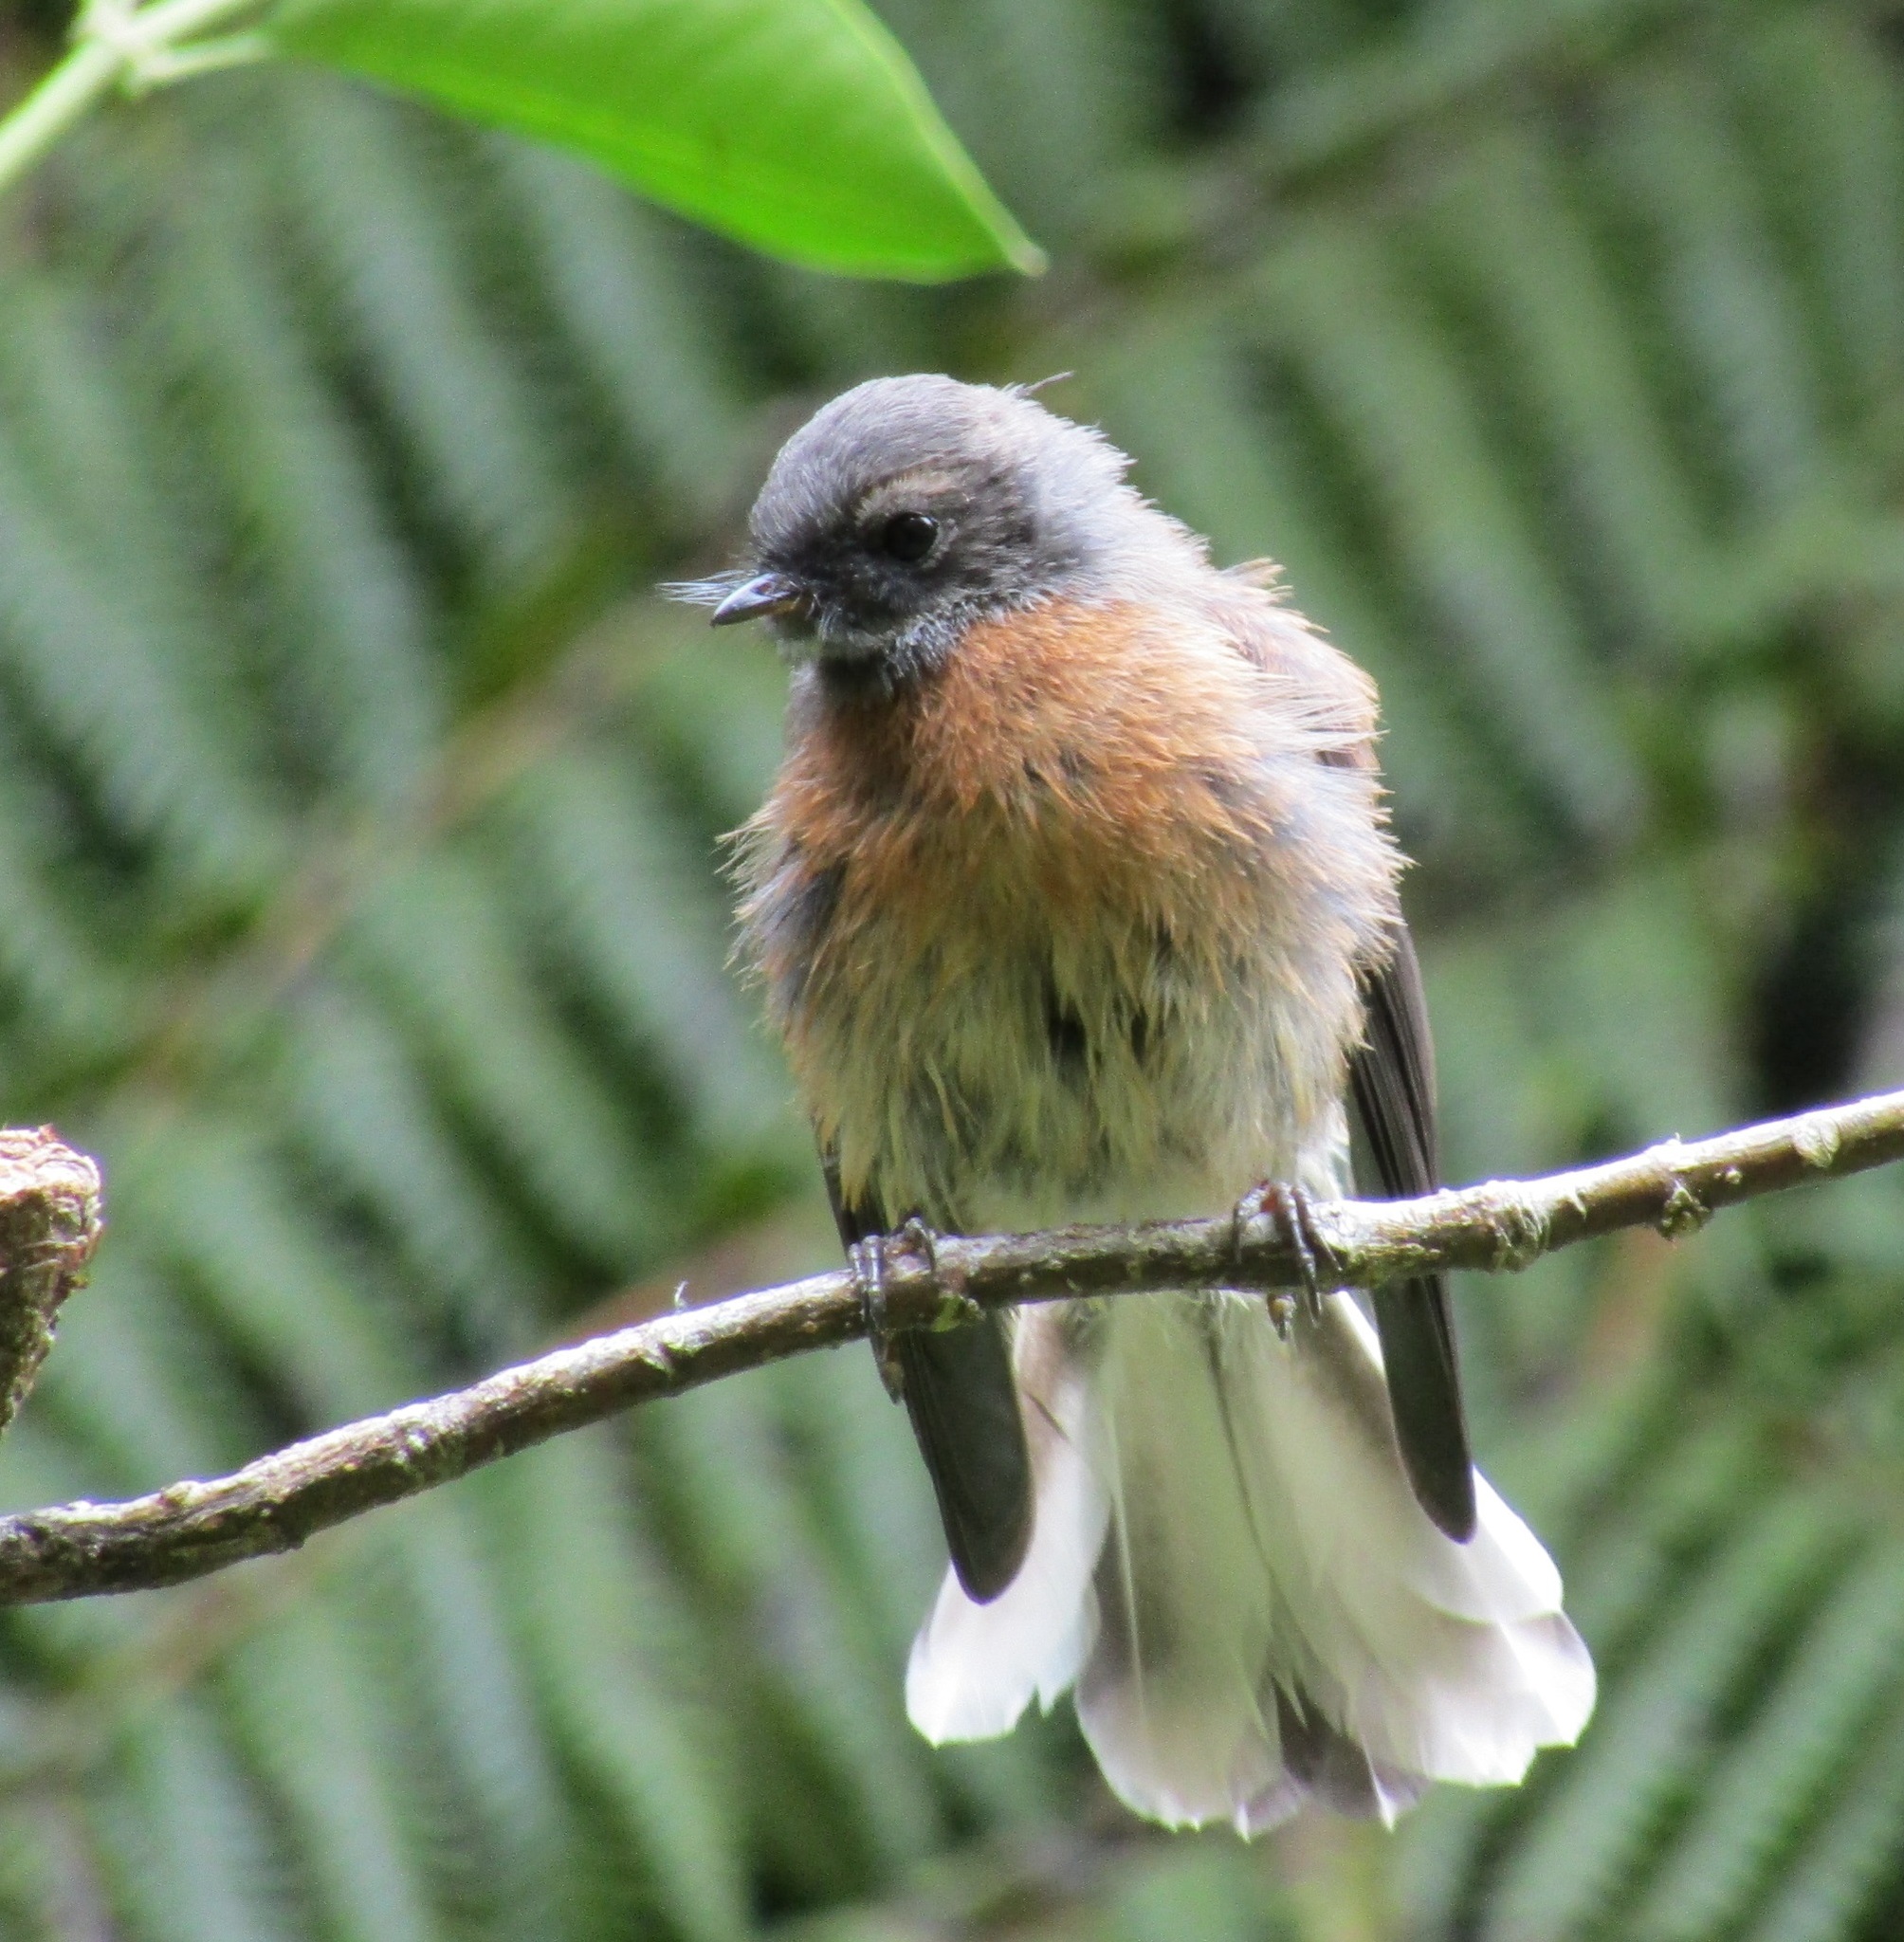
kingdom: Animalia
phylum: Chordata
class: Aves
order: Passeriformes
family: Rhipiduridae
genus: Rhipidura
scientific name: Rhipidura fuliginosa
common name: New zealand fantail
